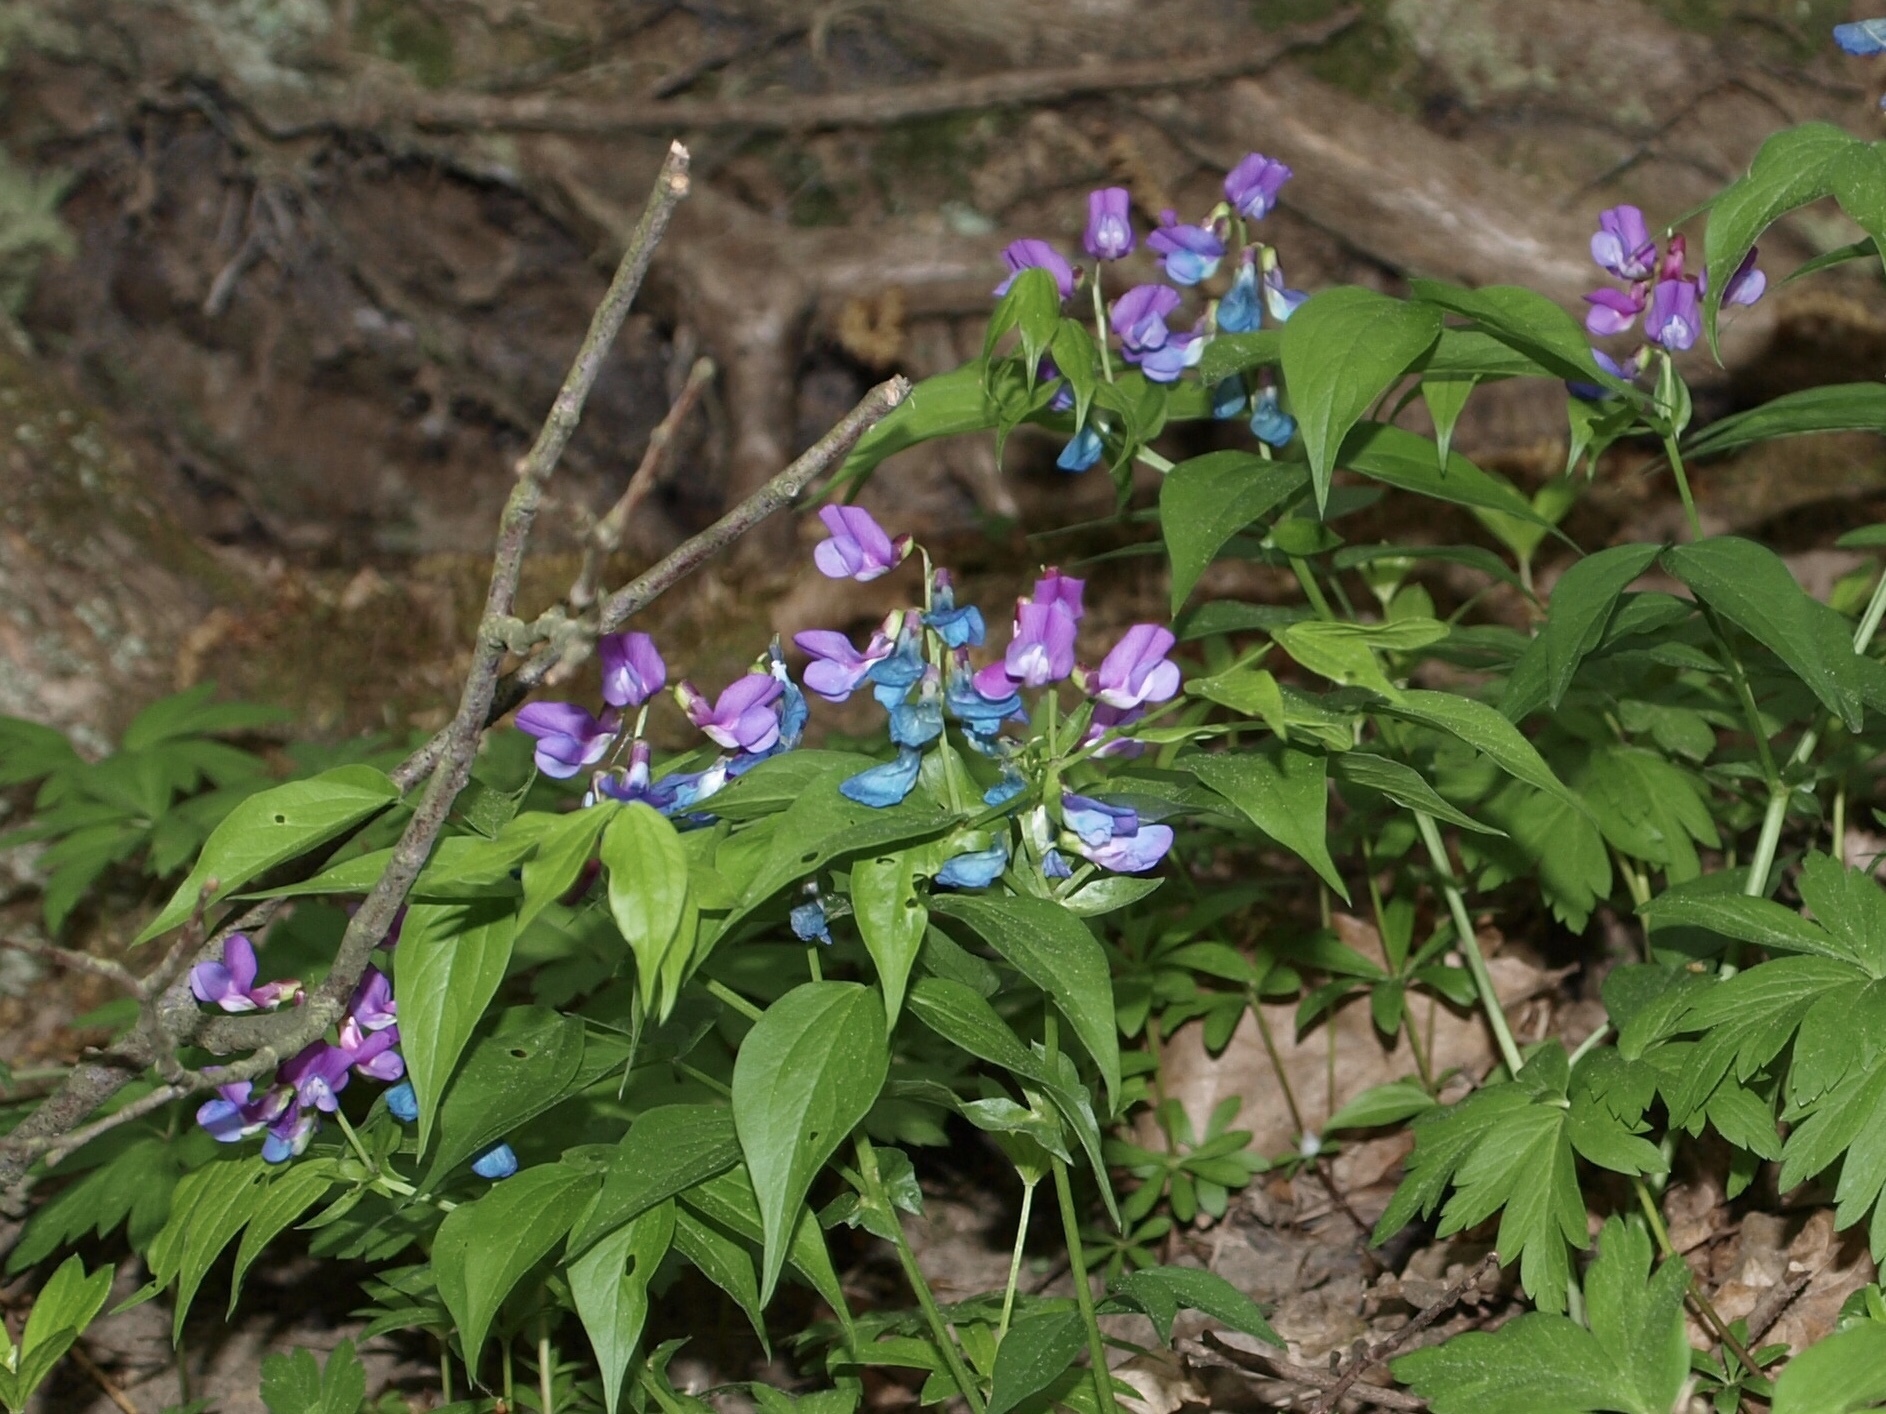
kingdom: Plantae
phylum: Tracheophyta
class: Magnoliopsida
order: Fabales
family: Fabaceae
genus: Lathyrus
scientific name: Lathyrus vernus
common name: Spring pea
